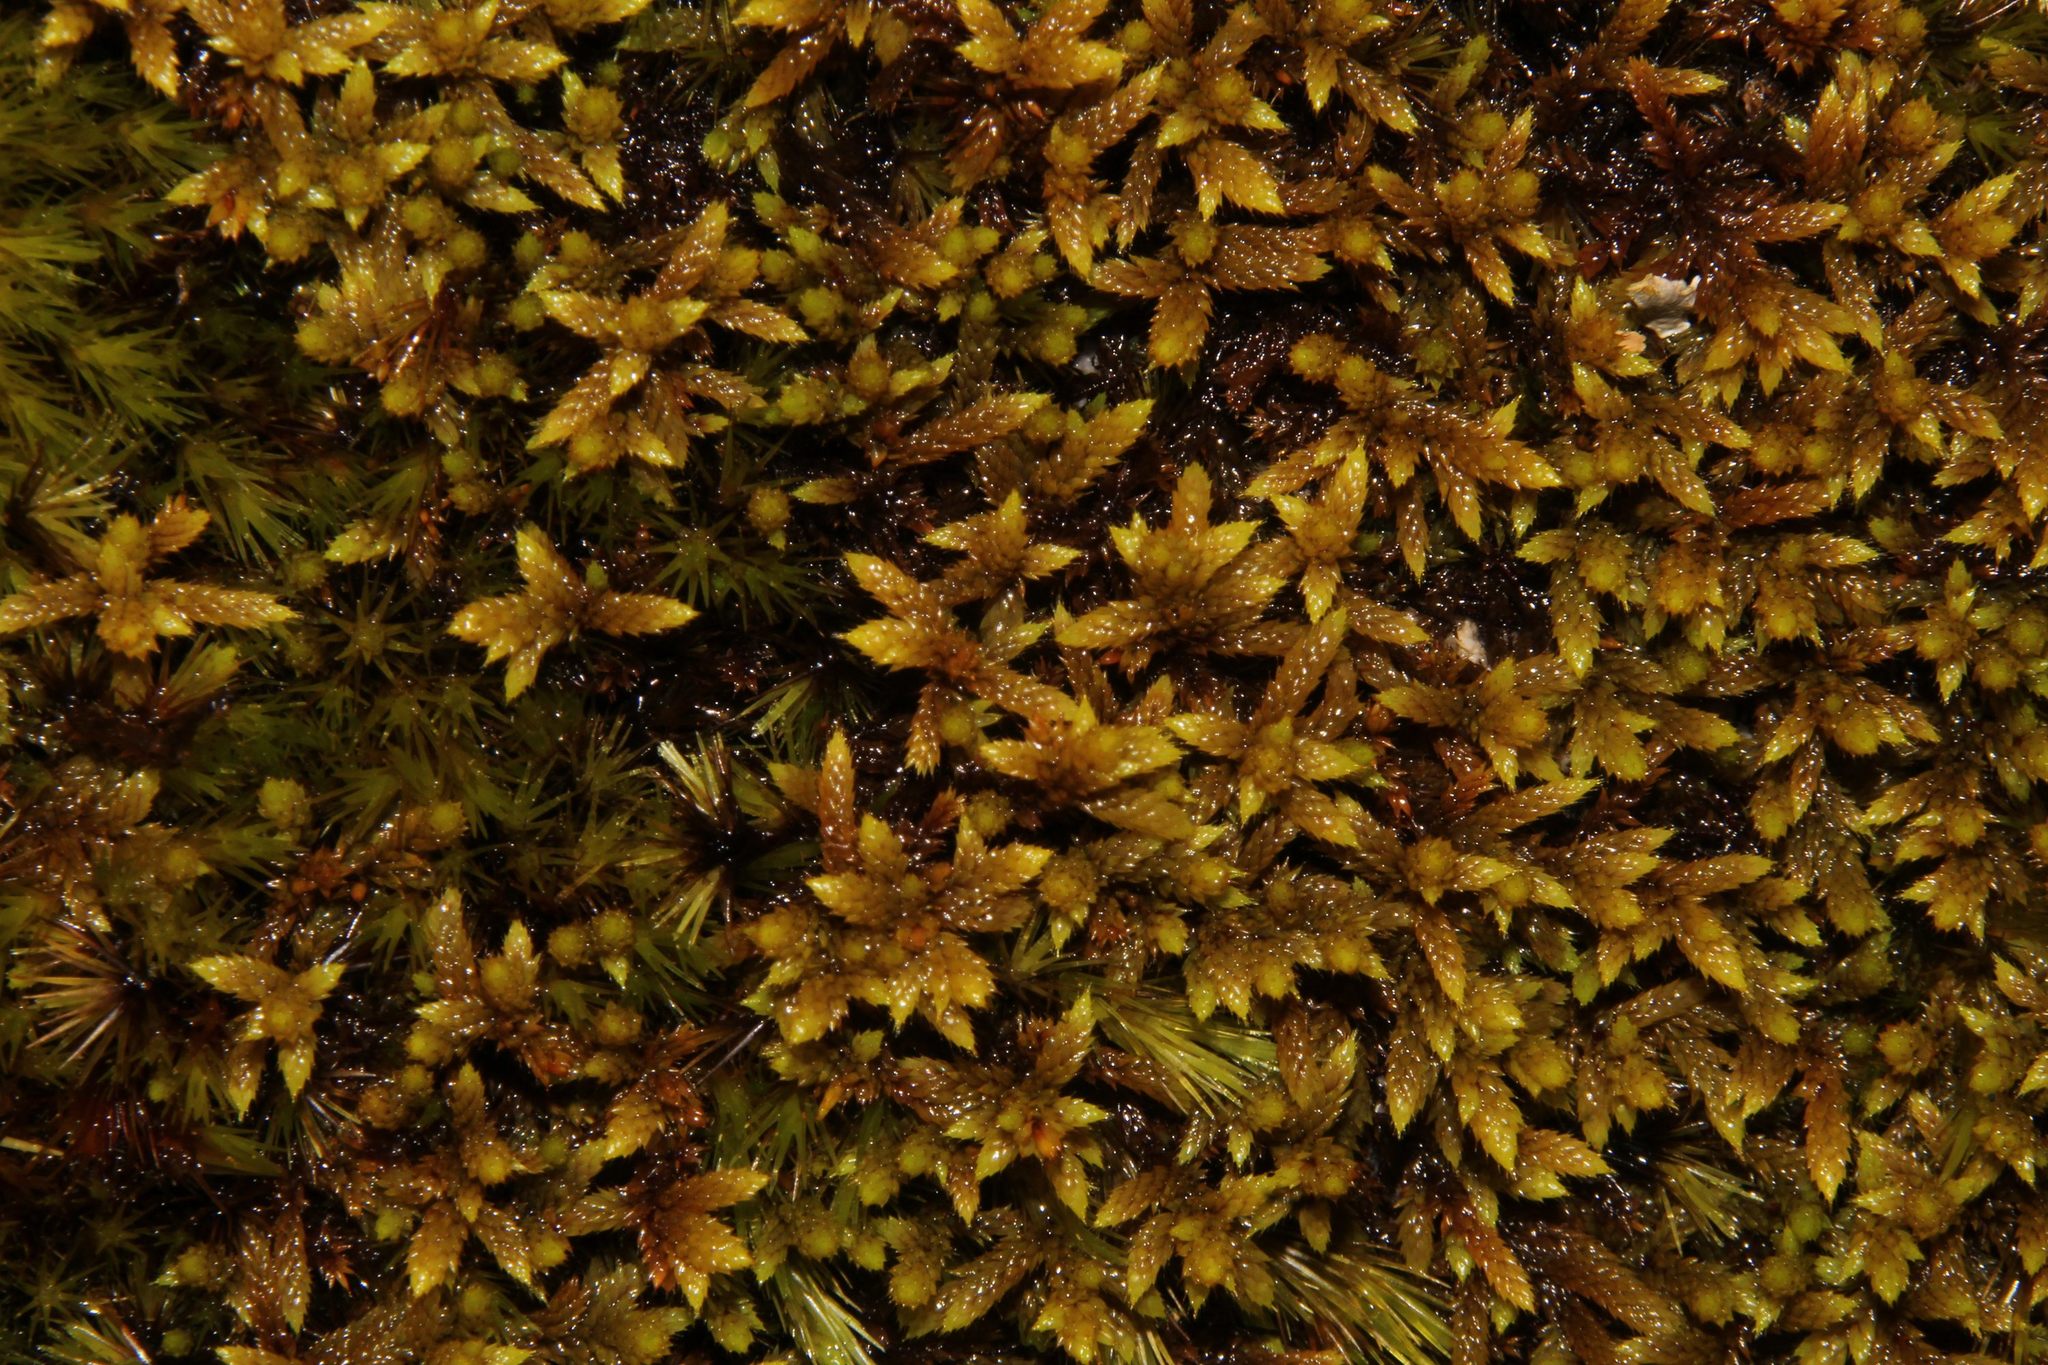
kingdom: Plantae
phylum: Bryophyta
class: Bryopsida
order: Hedwigiales
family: Hedwigiaceae
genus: Rhacocarpus
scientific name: Rhacocarpus purpurascens
